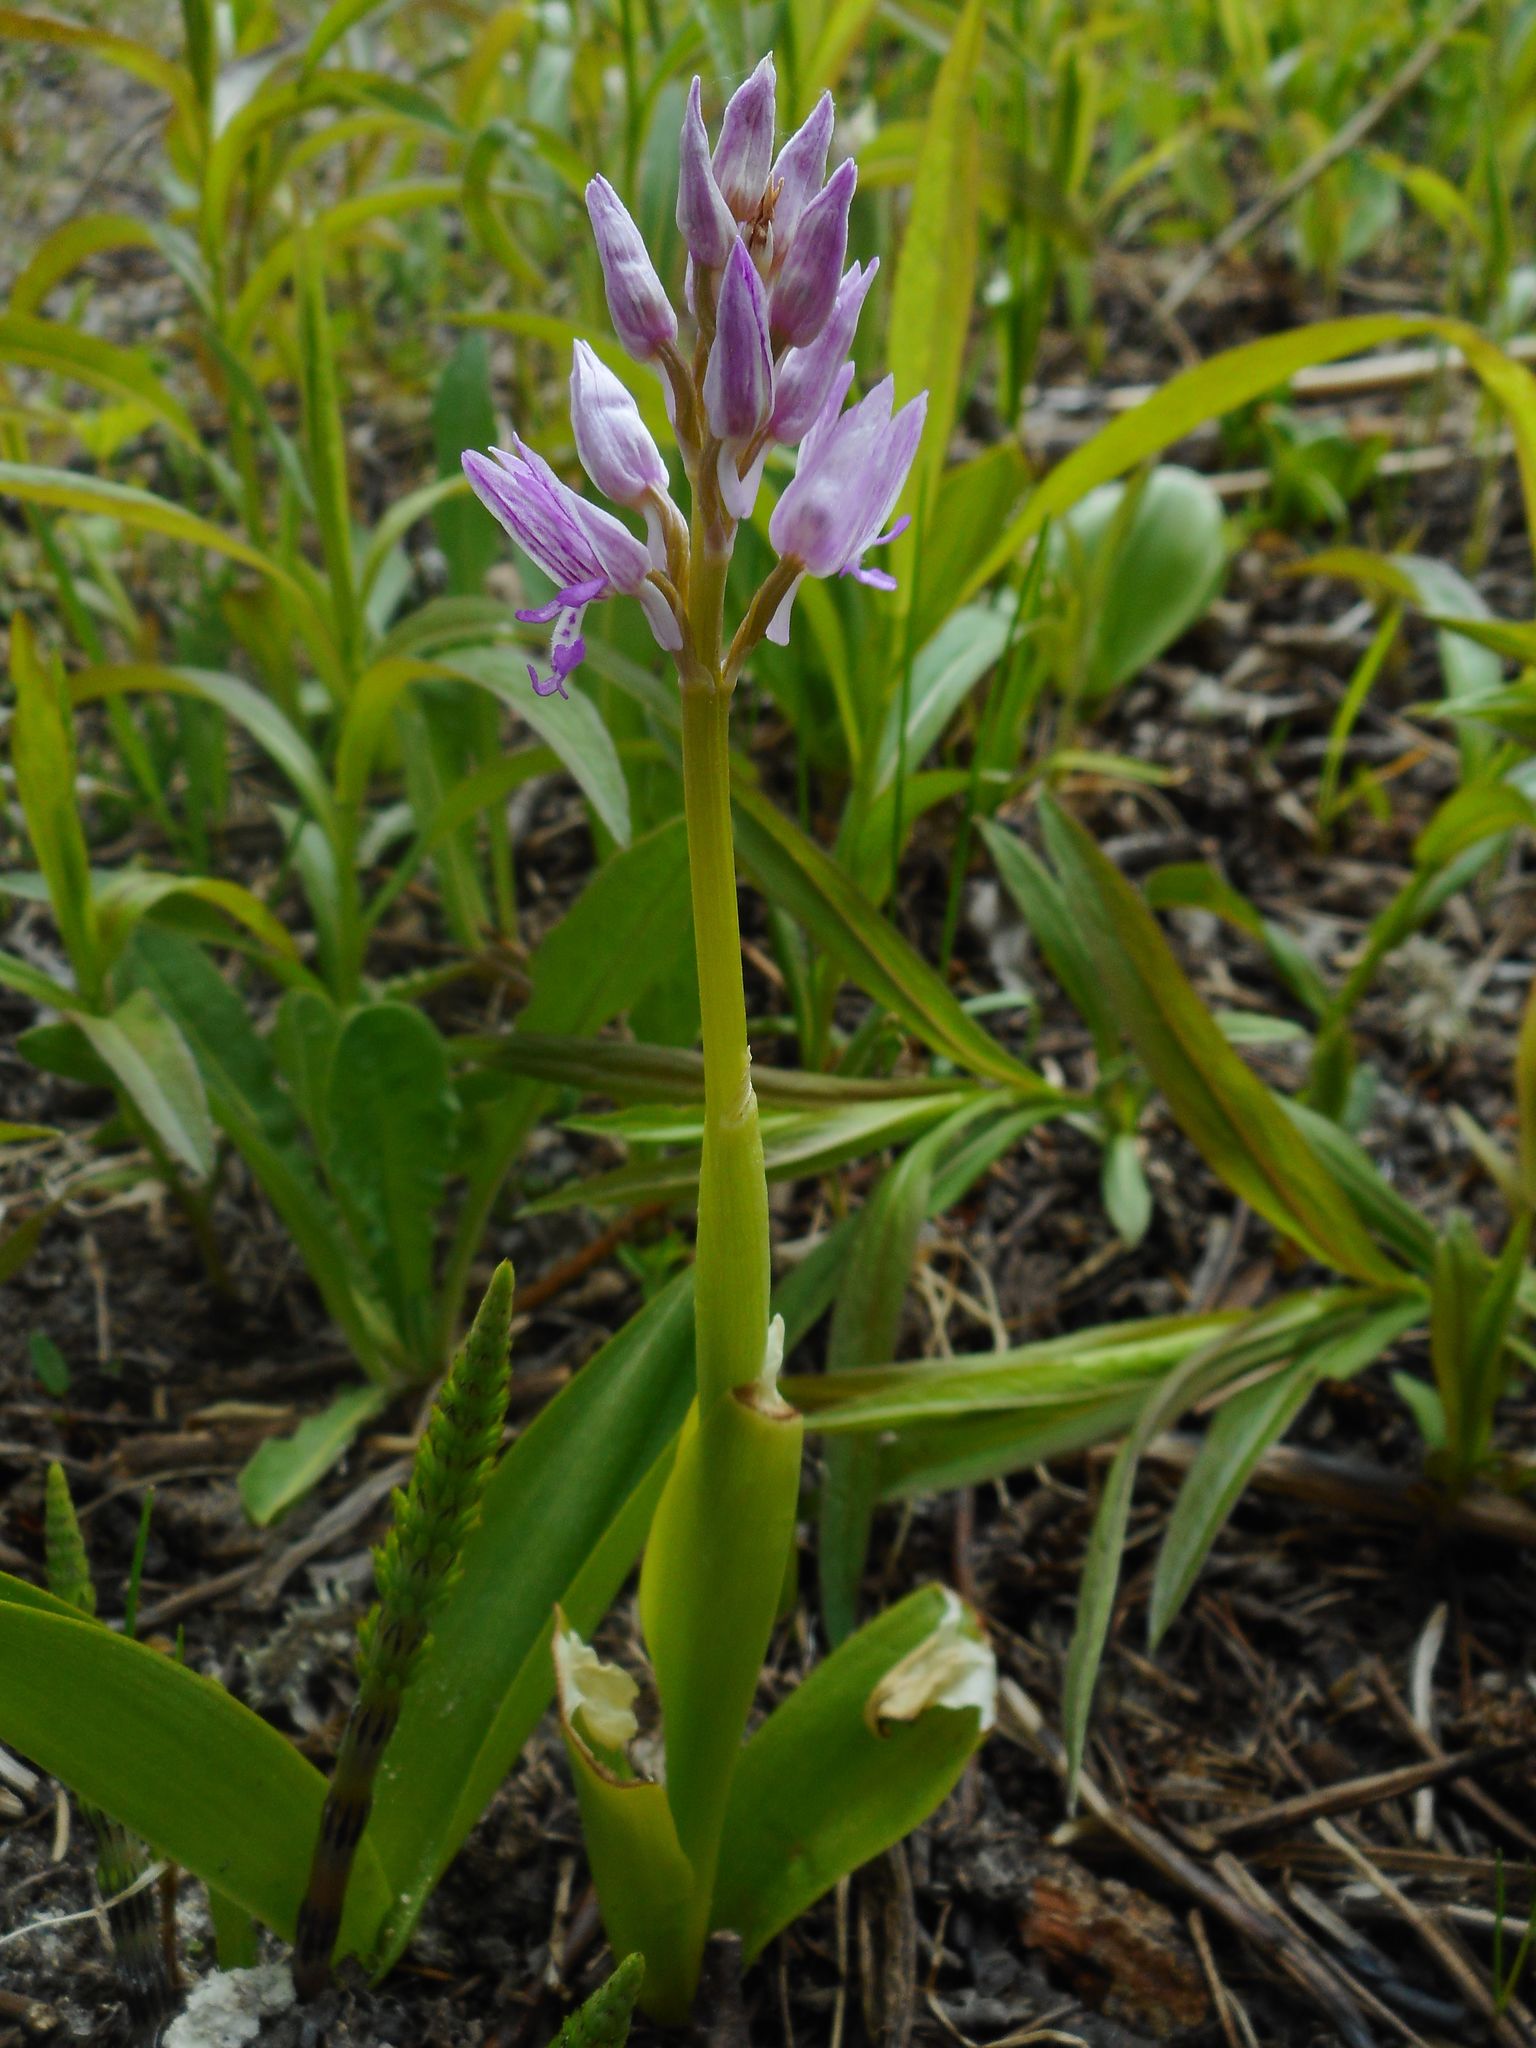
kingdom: Plantae
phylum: Tracheophyta
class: Liliopsida
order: Asparagales
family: Orchidaceae
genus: Orchis
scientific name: Orchis militaris
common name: Military orchid
